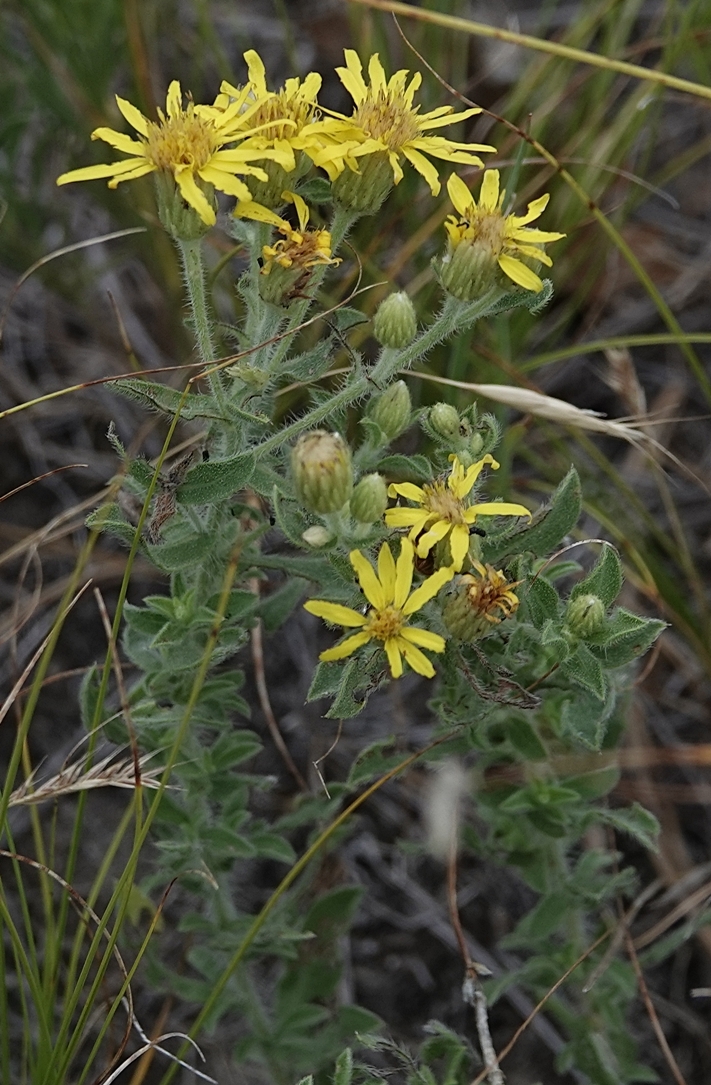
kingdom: Plantae
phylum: Tracheophyta
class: Magnoliopsida
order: Asterales
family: Asteraceae
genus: Heterotheca
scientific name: Heterotheca hirsutissima
